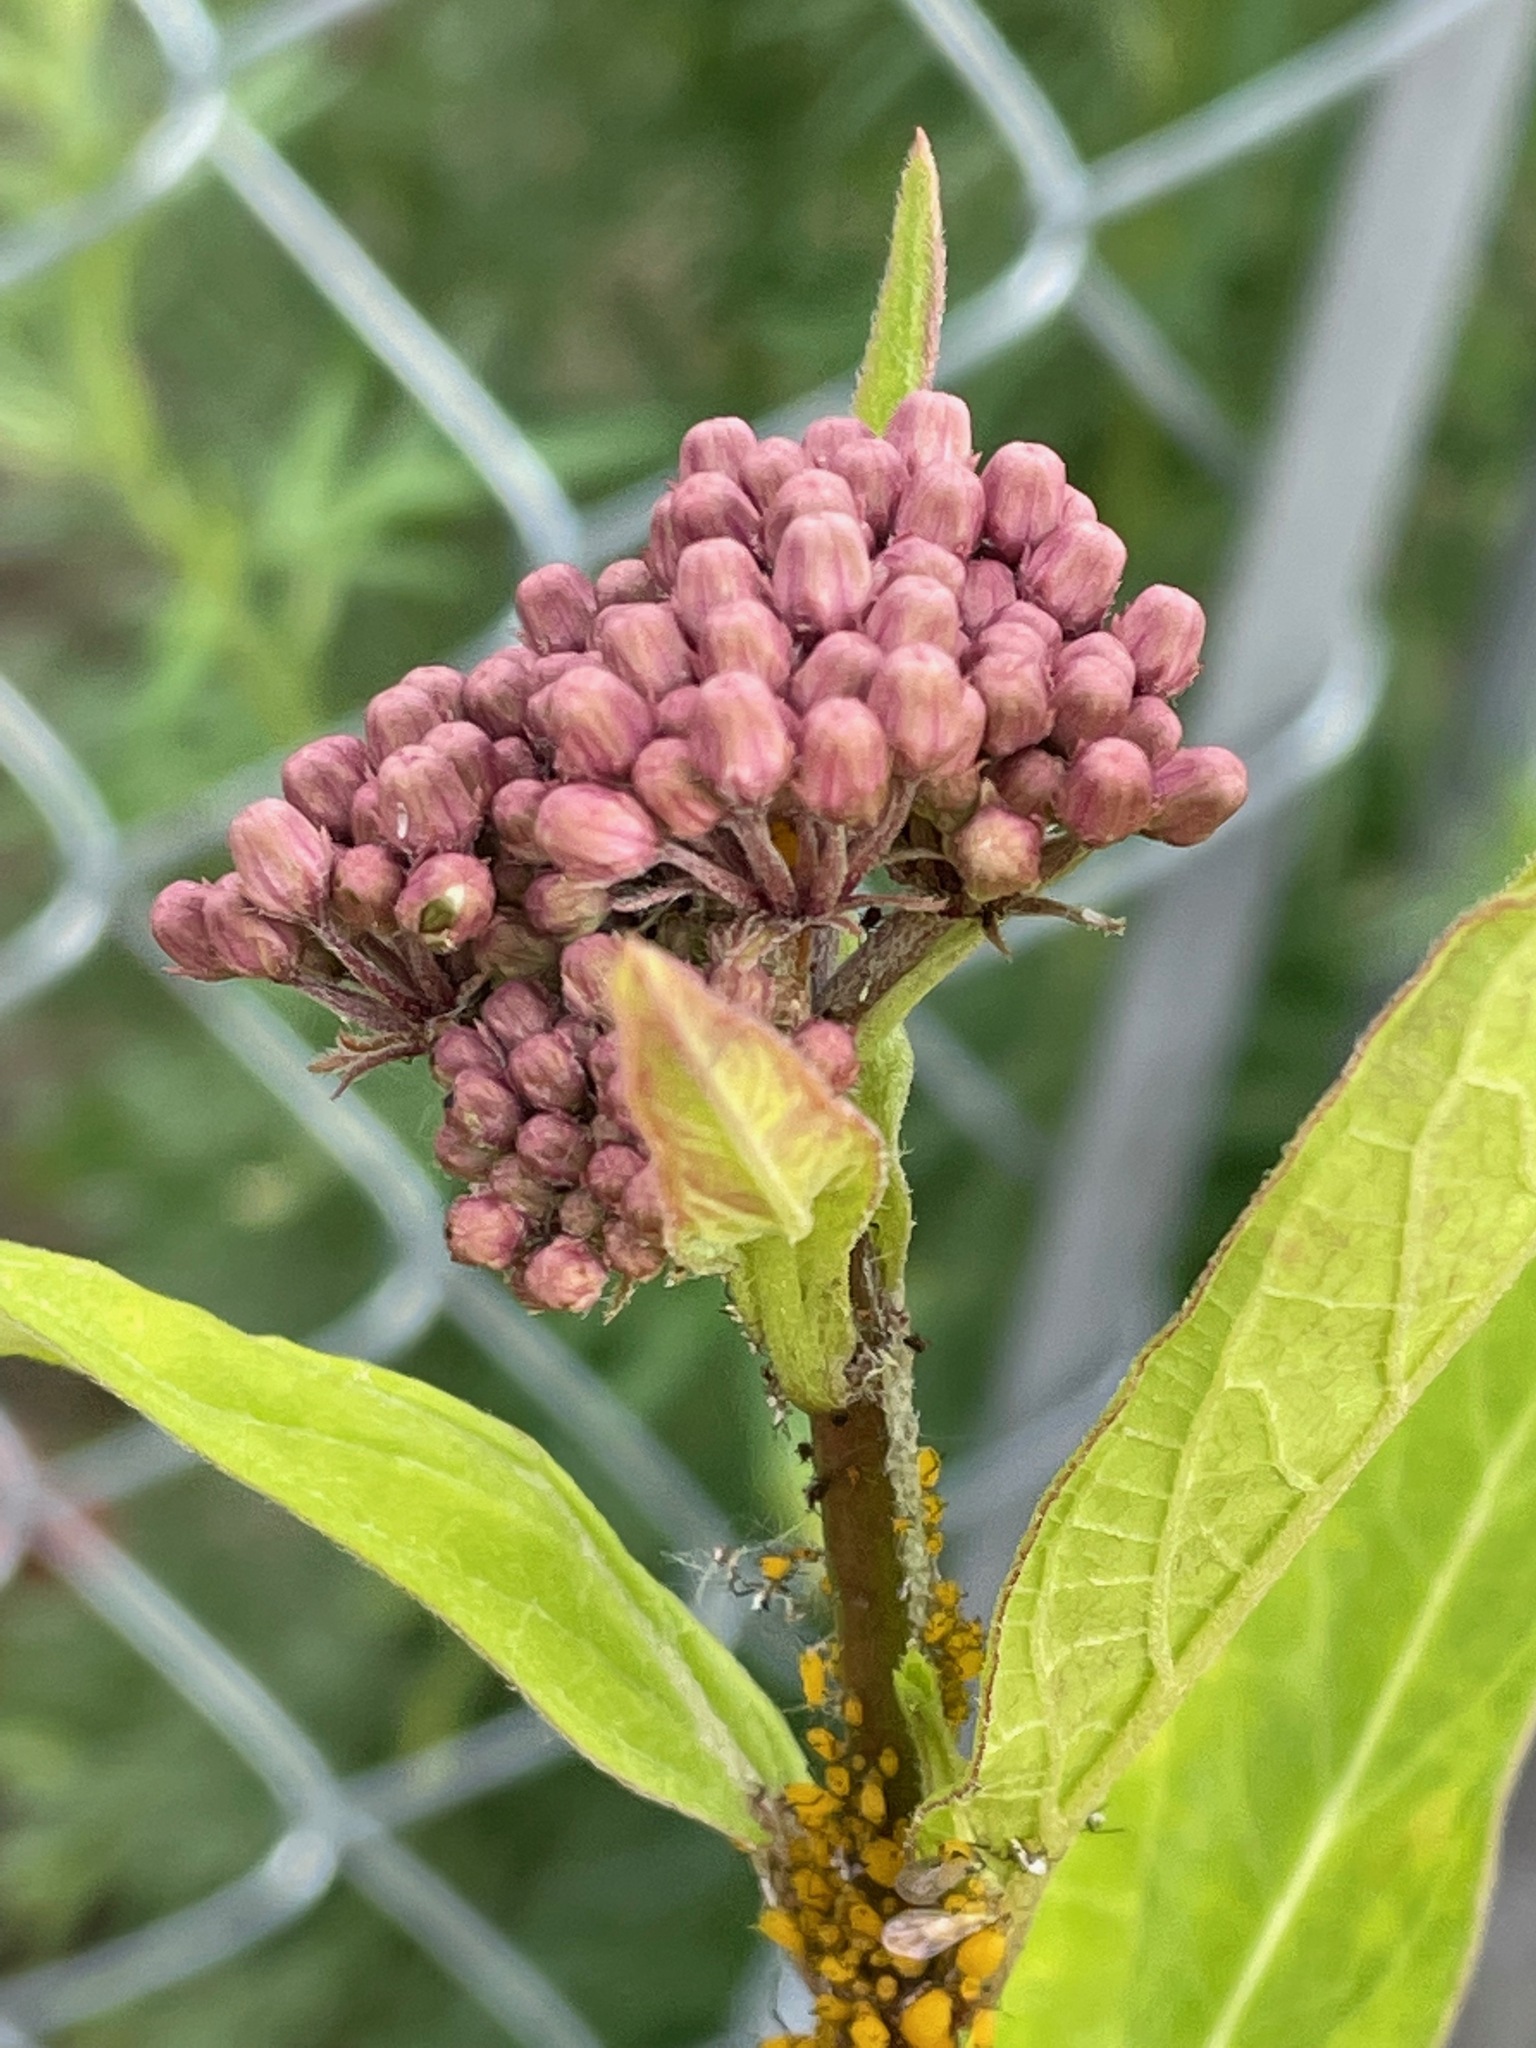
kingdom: Plantae
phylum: Tracheophyta
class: Magnoliopsida
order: Gentianales
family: Apocynaceae
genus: Asclepias
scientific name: Asclepias incarnata
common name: Swamp milkweed
